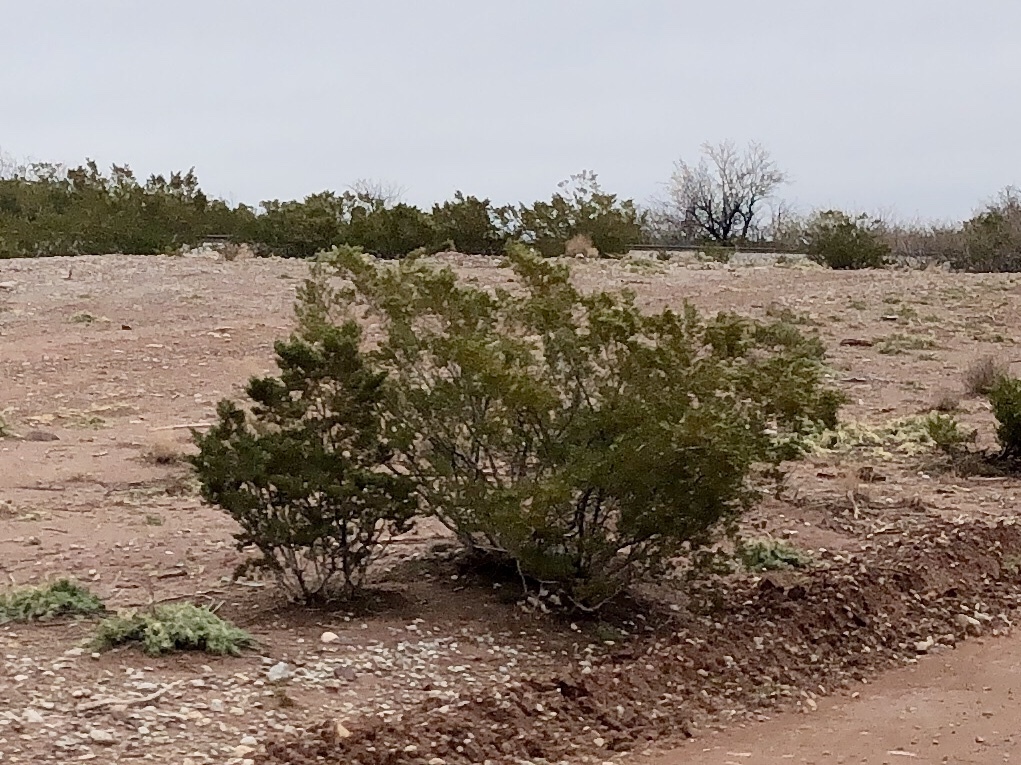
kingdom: Plantae
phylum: Tracheophyta
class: Magnoliopsida
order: Zygophyllales
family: Zygophyllaceae
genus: Larrea
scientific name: Larrea tridentata
